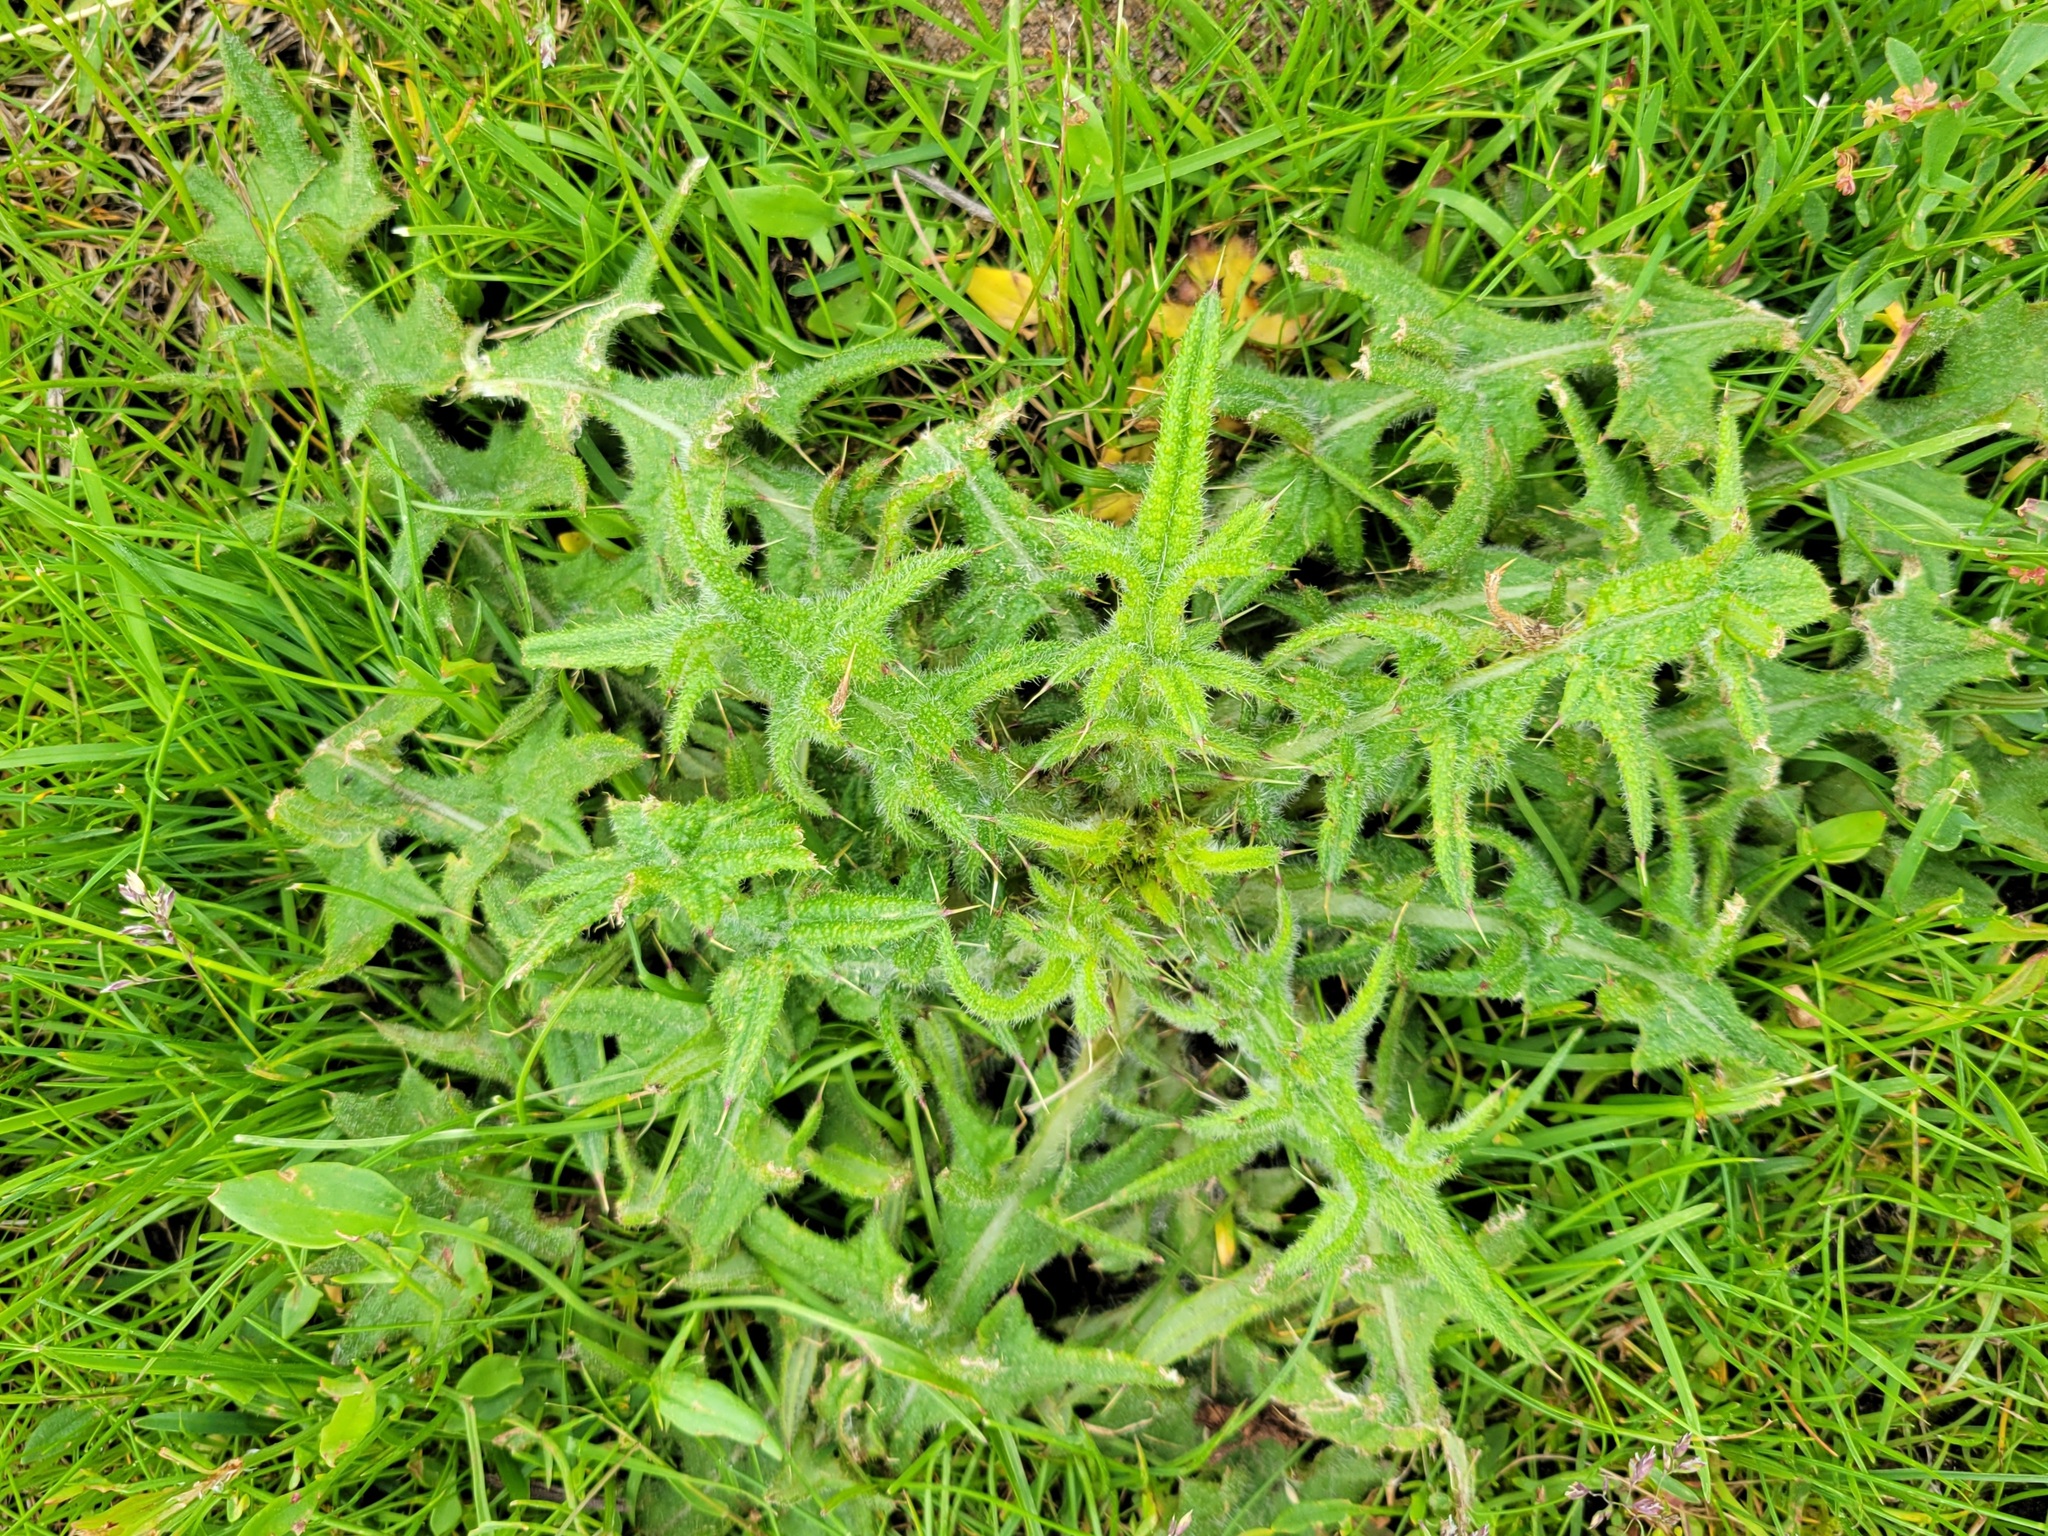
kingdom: Plantae
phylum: Tracheophyta
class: Magnoliopsida
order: Asterales
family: Asteraceae
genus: Cirsium
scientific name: Cirsium vulgare
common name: Bull thistle
